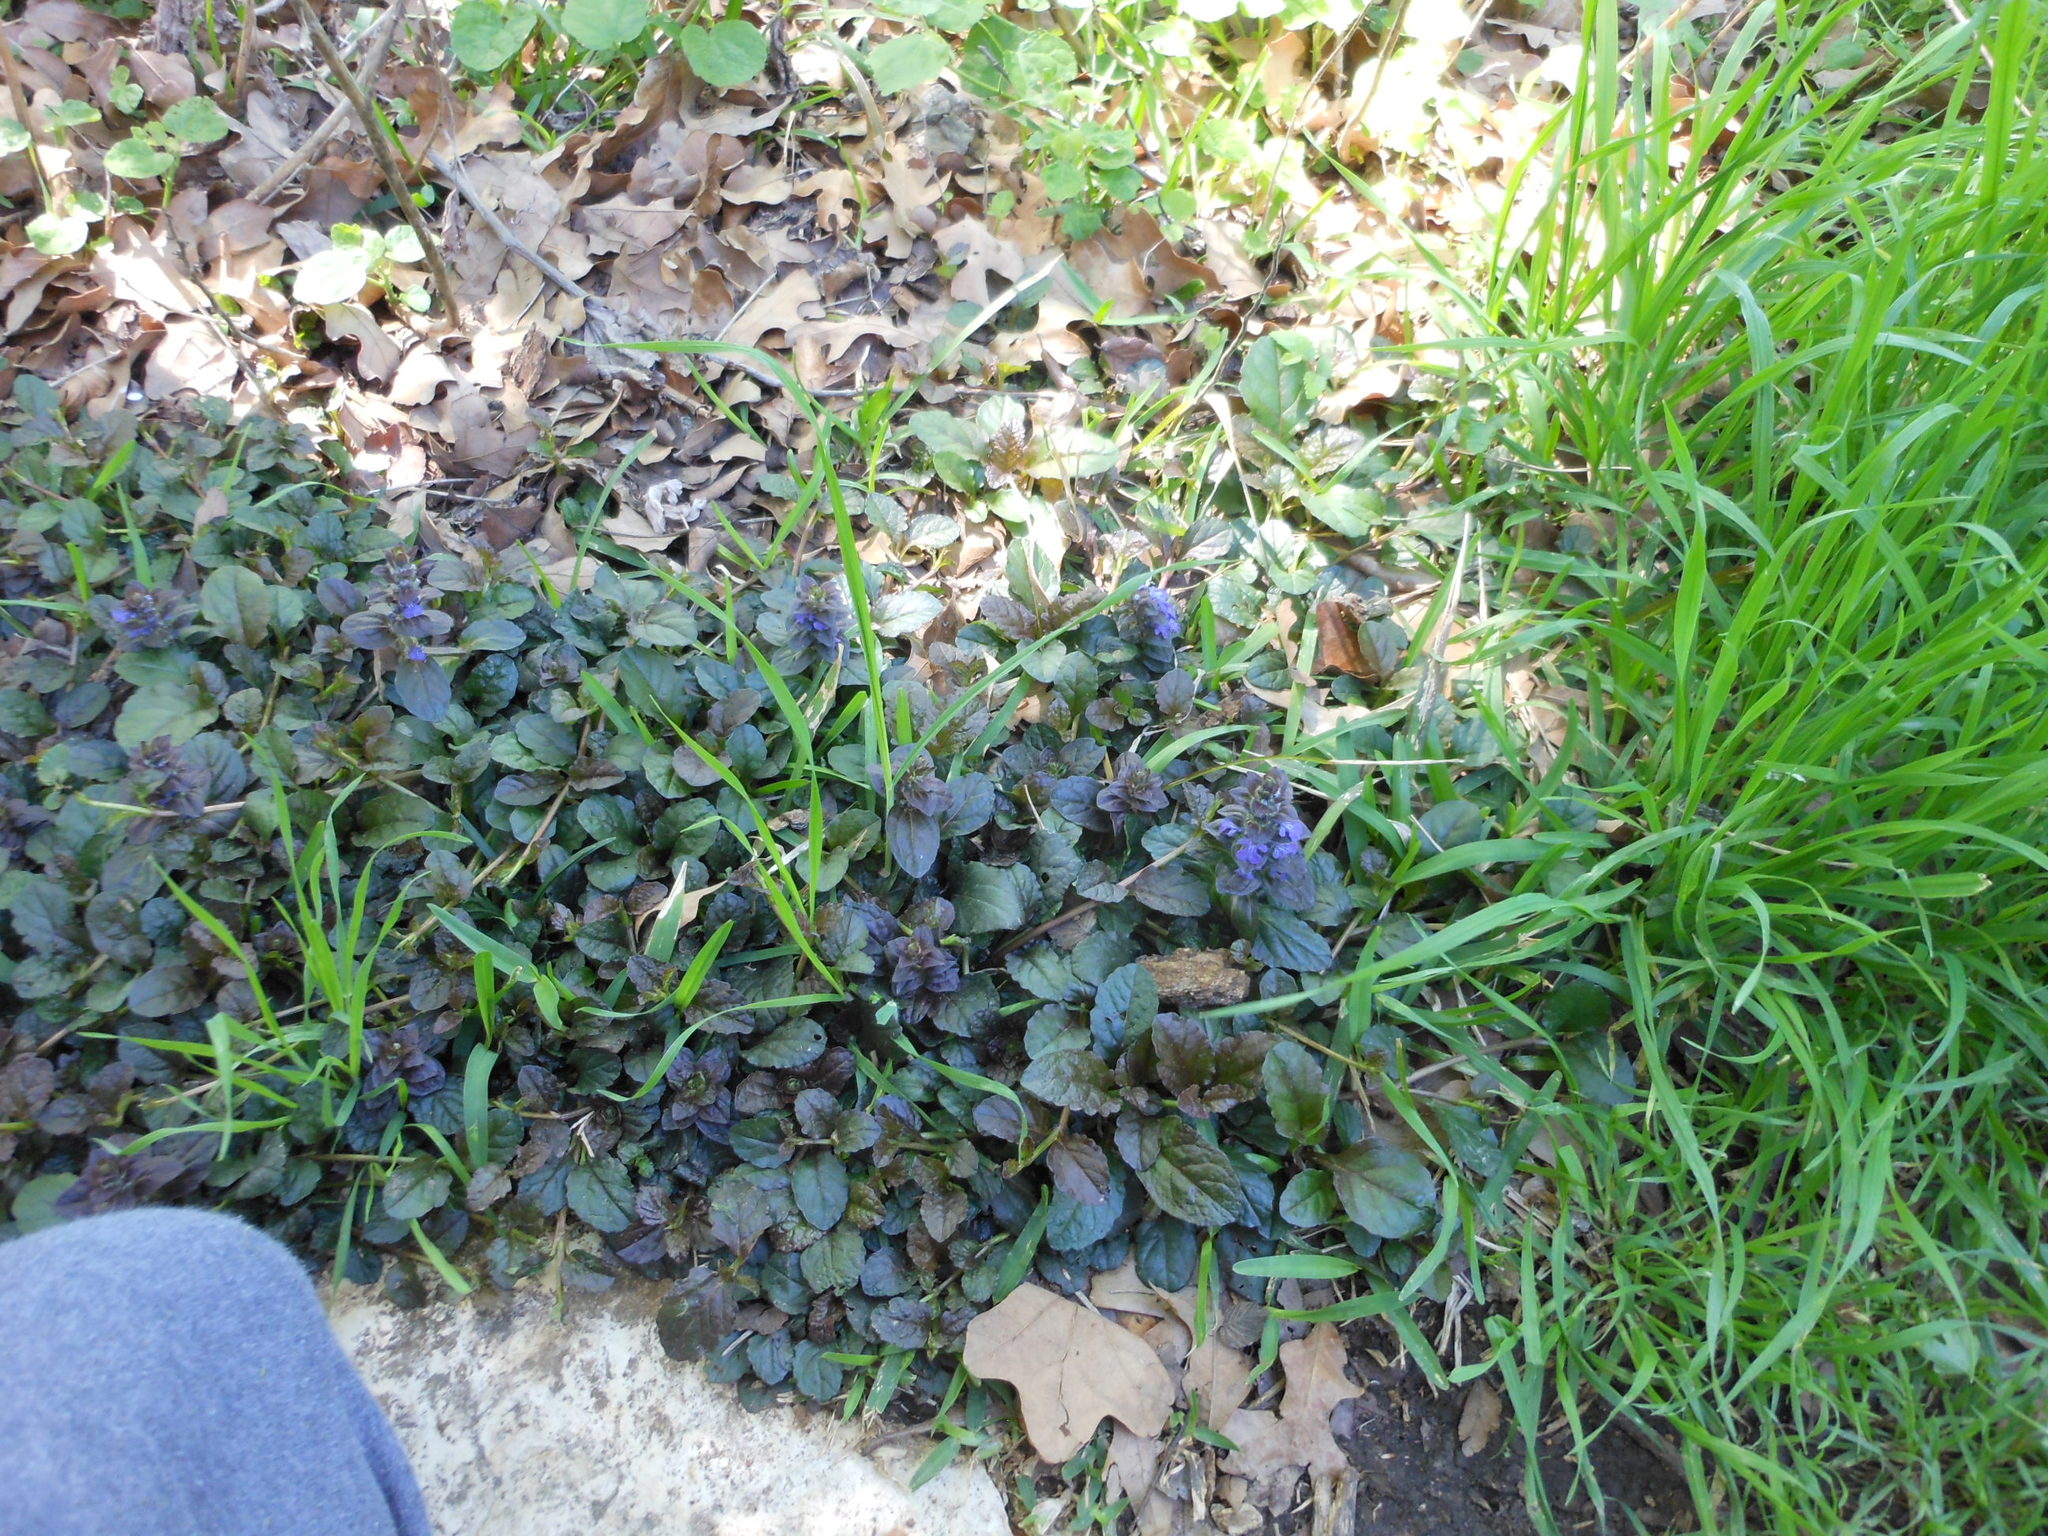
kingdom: Plantae
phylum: Tracheophyta
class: Magnoliopsida
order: Lamiales
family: Lamiaceae
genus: Ajuga
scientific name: Ajuga reptans
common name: Bugle
